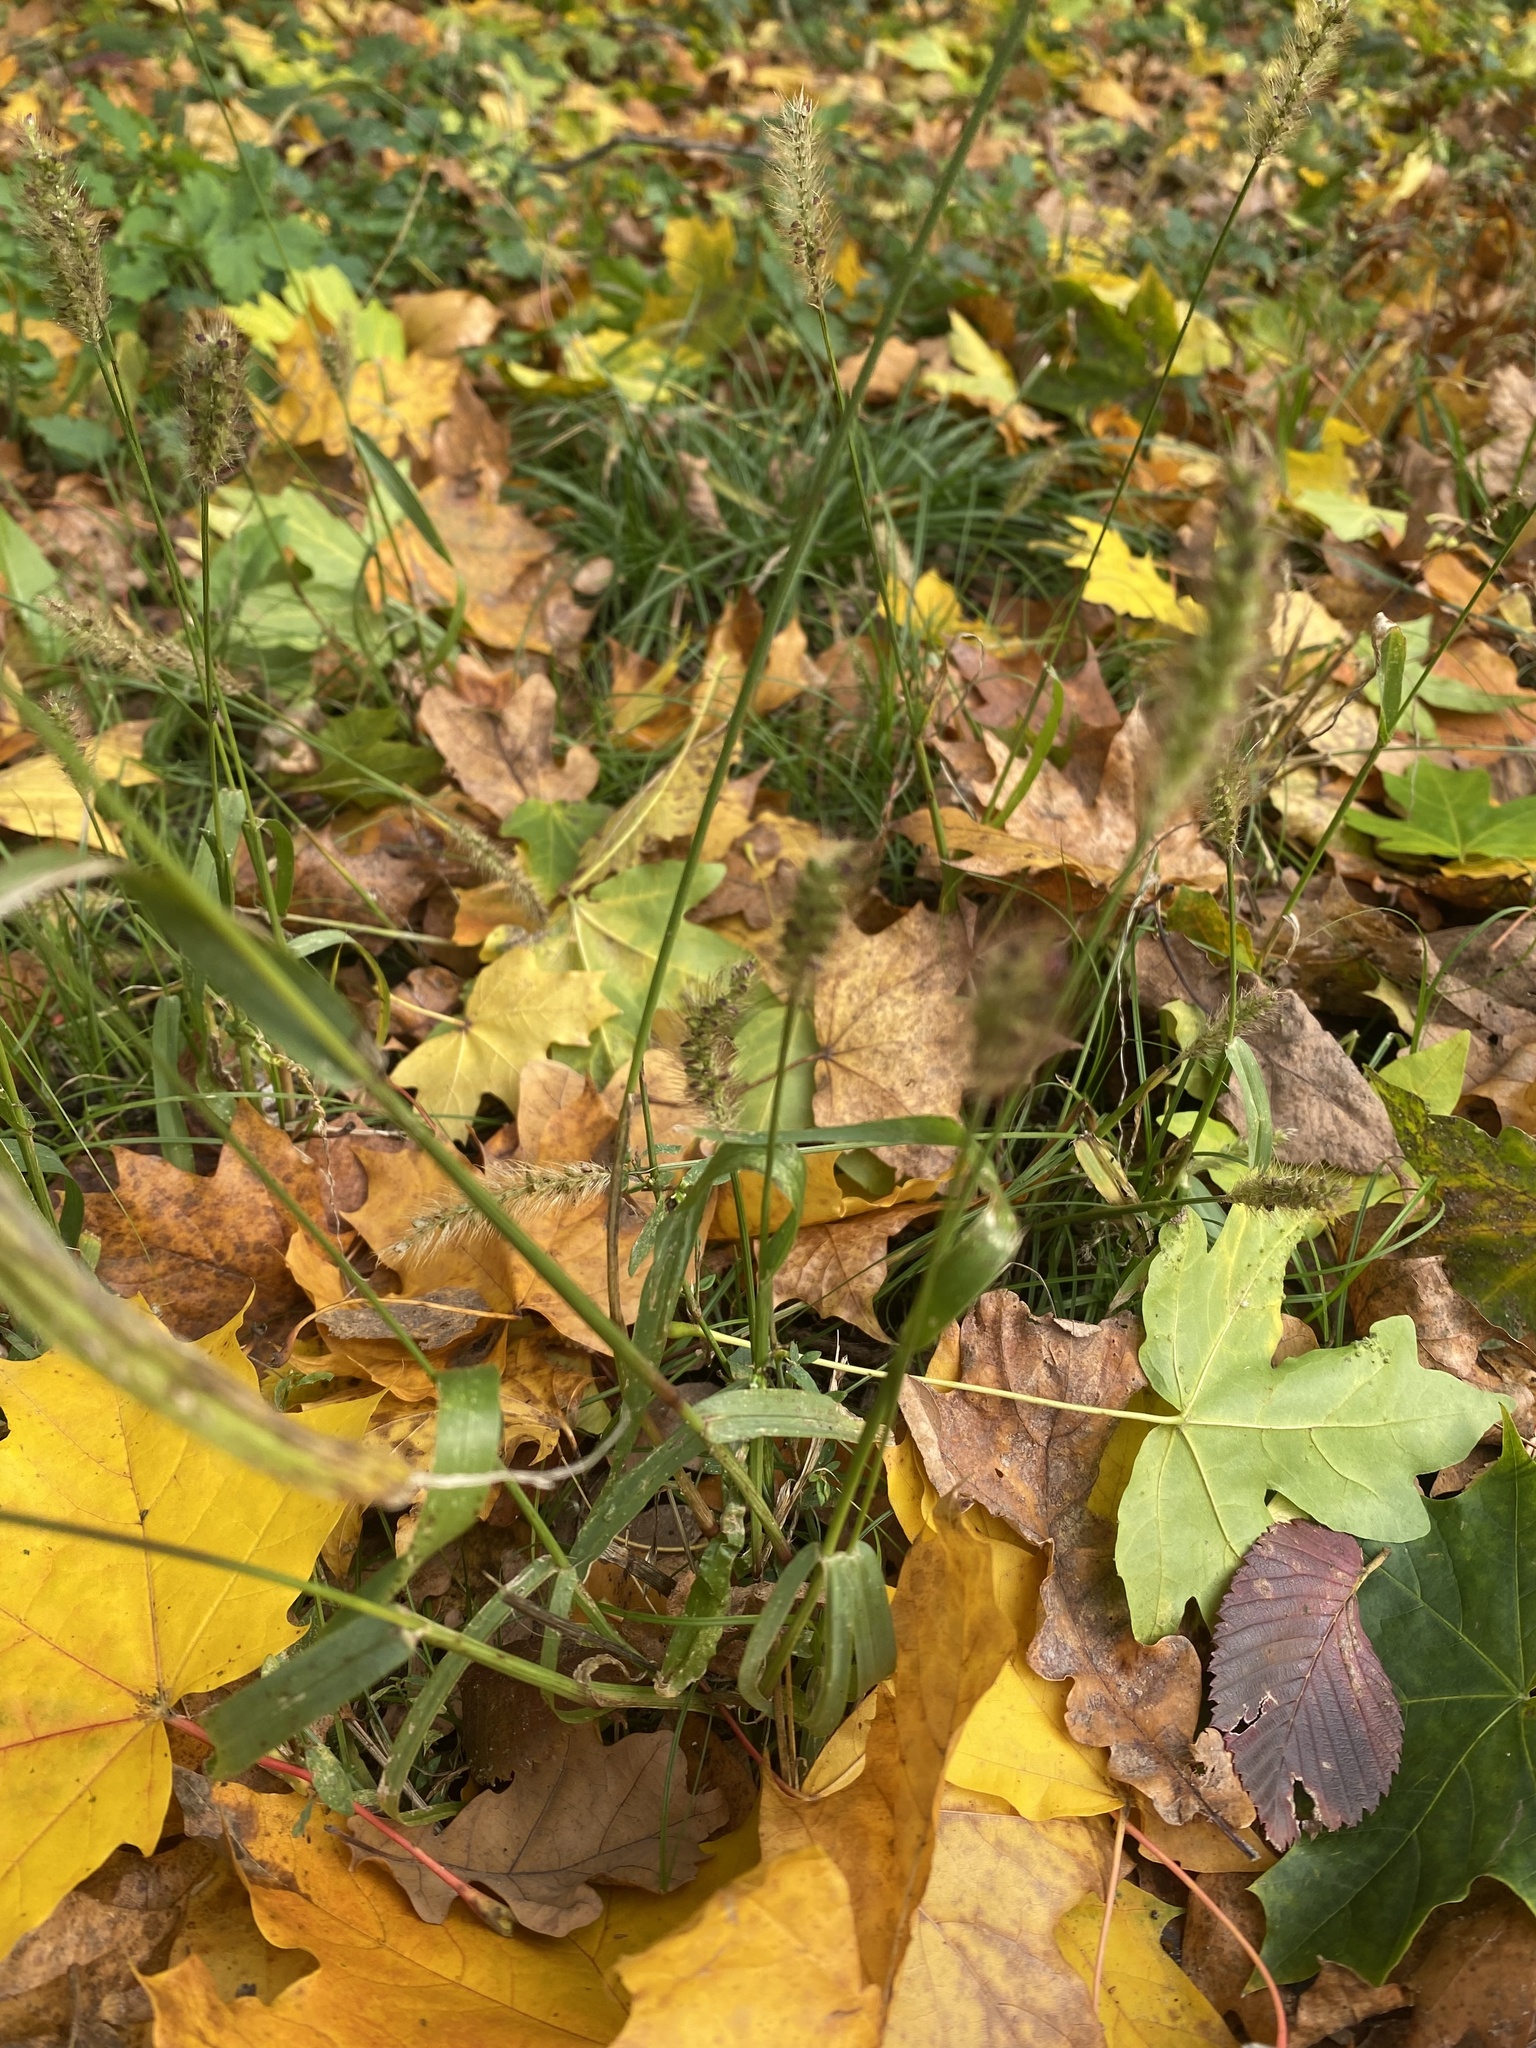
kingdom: Plantae
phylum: Tracheophyta
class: Liliopsida
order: Poales
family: Poaceae
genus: Setaria
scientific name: Setaria pumila
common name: Yellow bristle-grass
